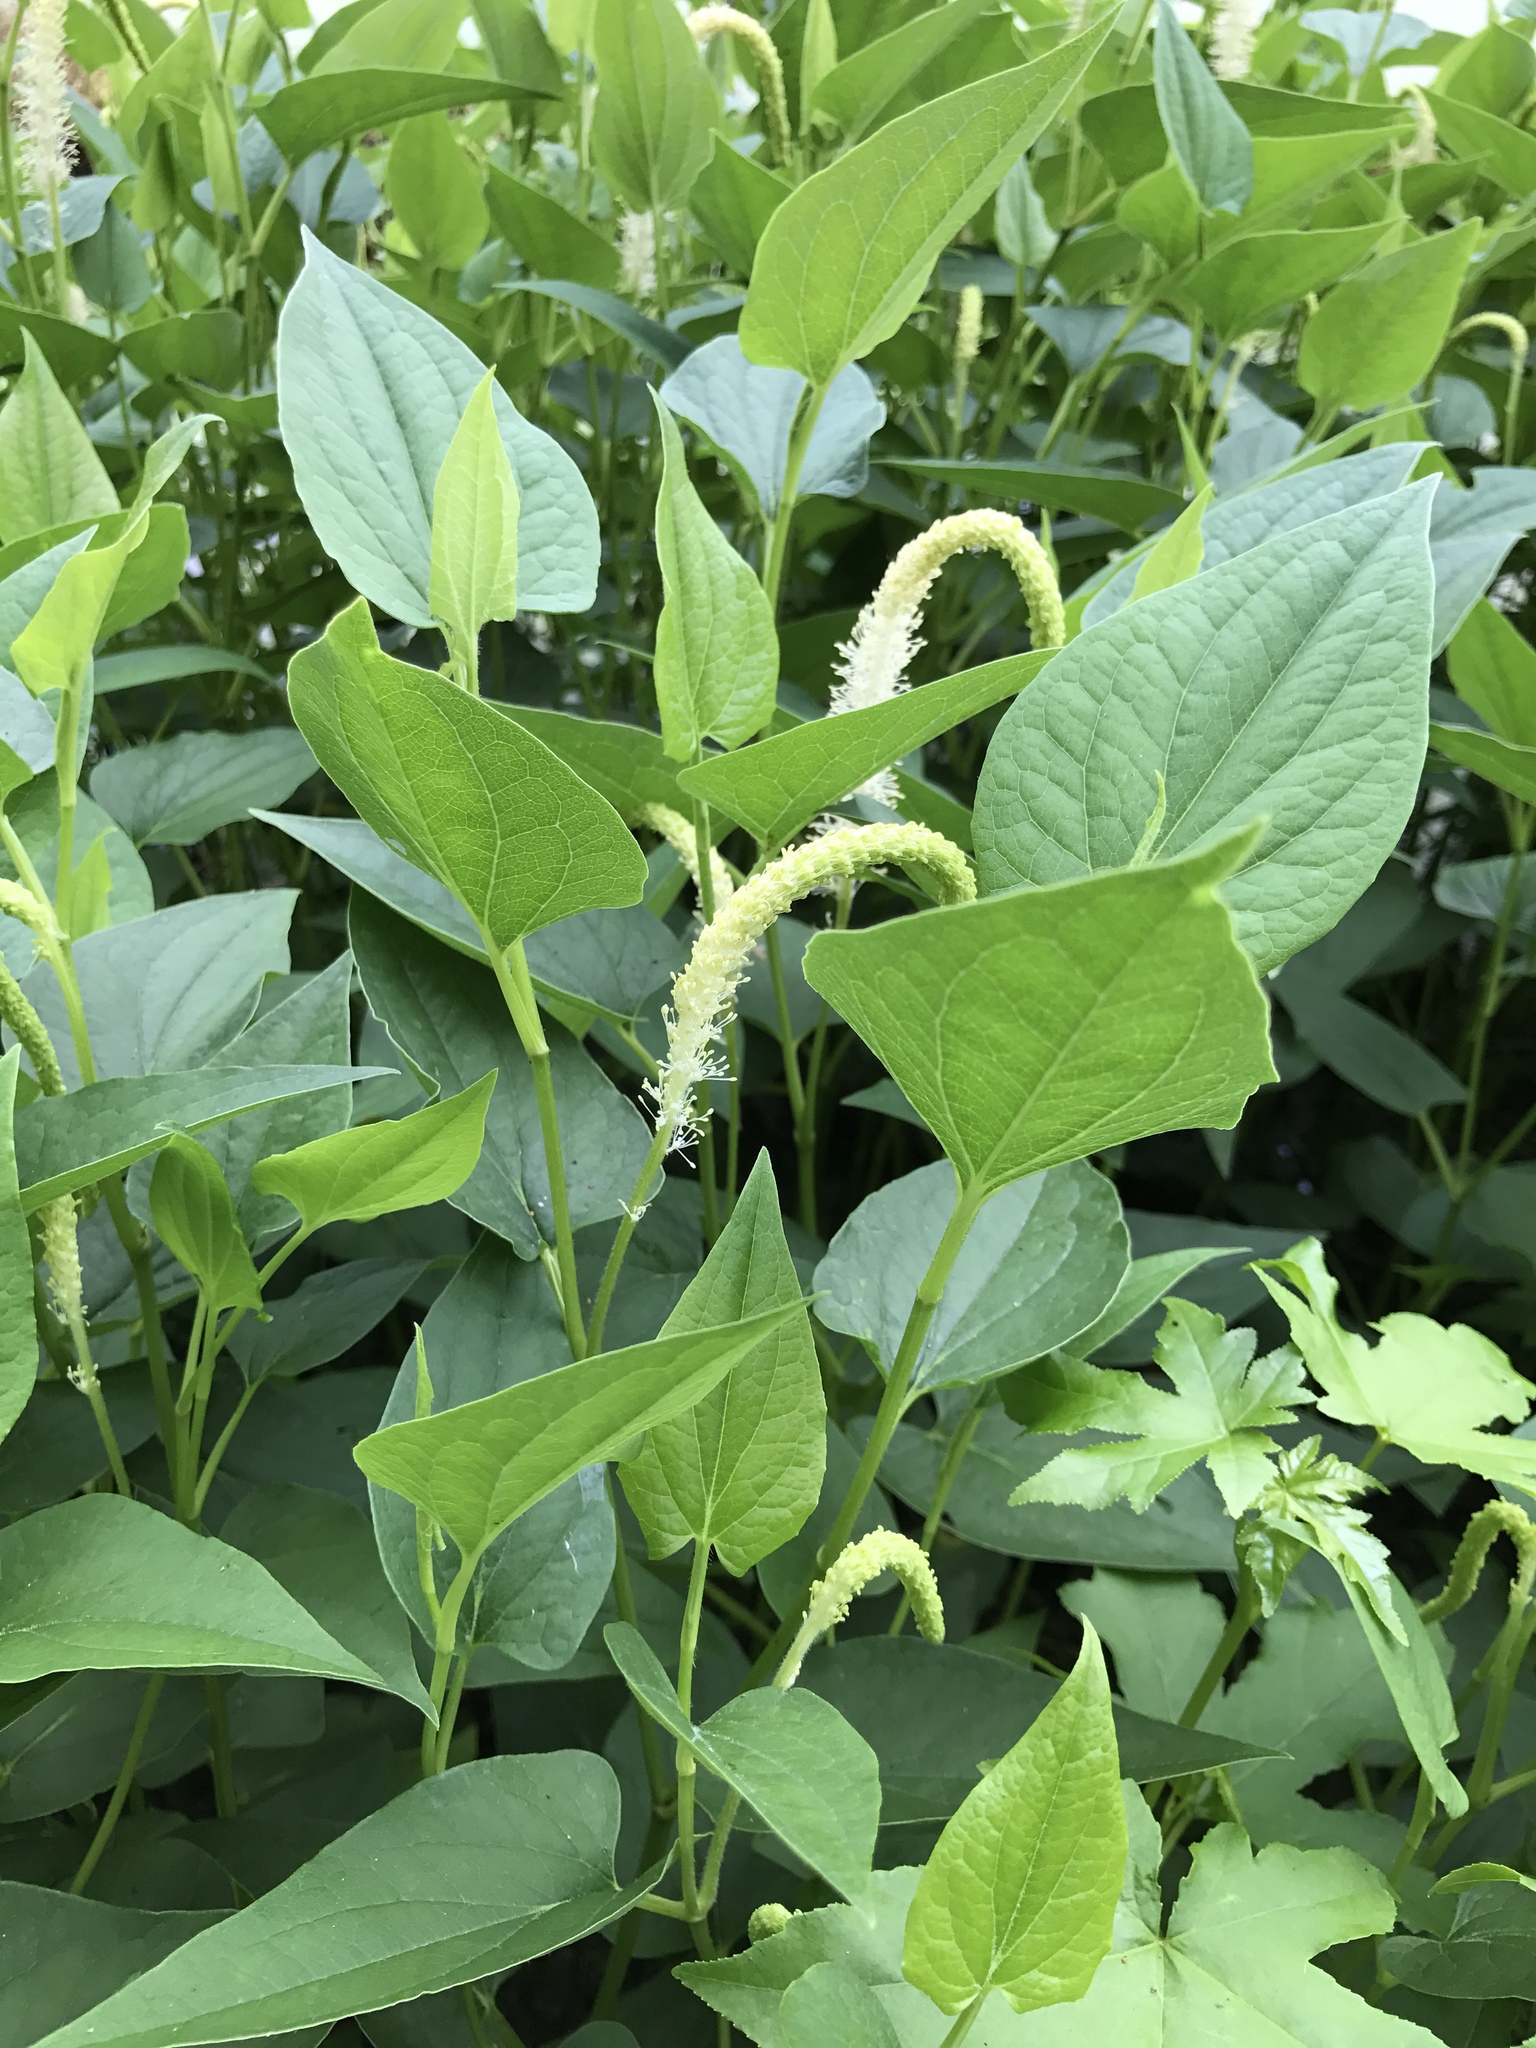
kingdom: Plantae
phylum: Tracheophyta
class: Magnoliopsida
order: Piperales
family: Saururaceae
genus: Saururus
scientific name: Saururus cernuus
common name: Lizard's-tail
